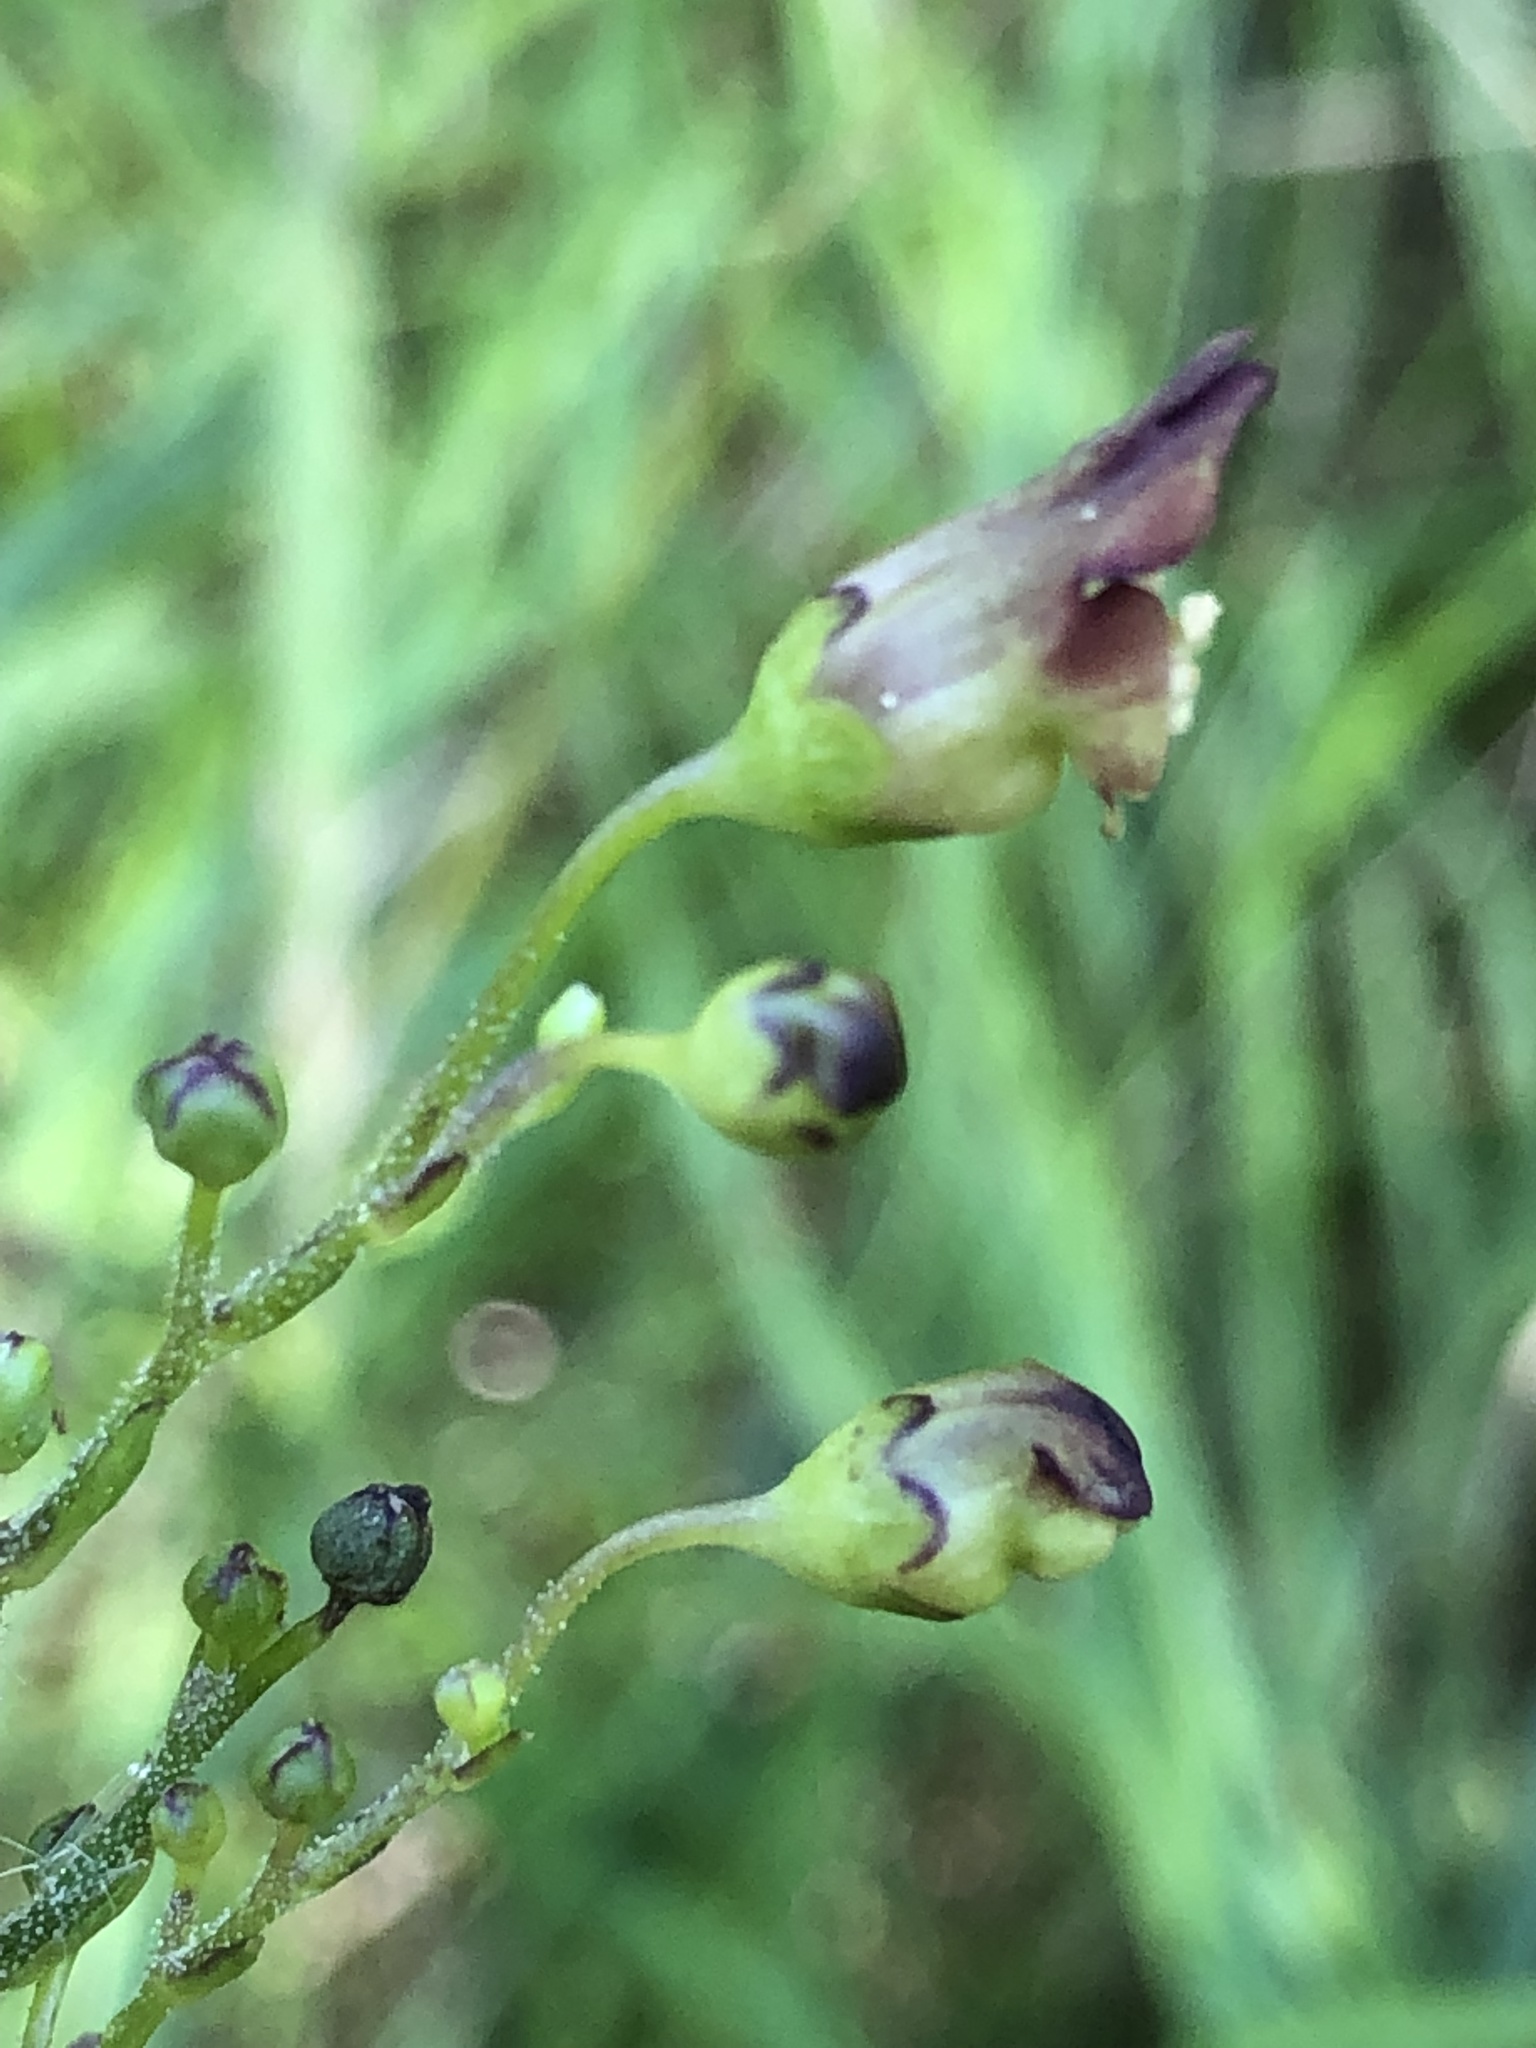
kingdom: Plantae
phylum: Tracheophyta
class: Magnoliopsida
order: Lamiales
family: Scrophulariaceae
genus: Scrophularia
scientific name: Scrophularia nodosa
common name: Common figwort
